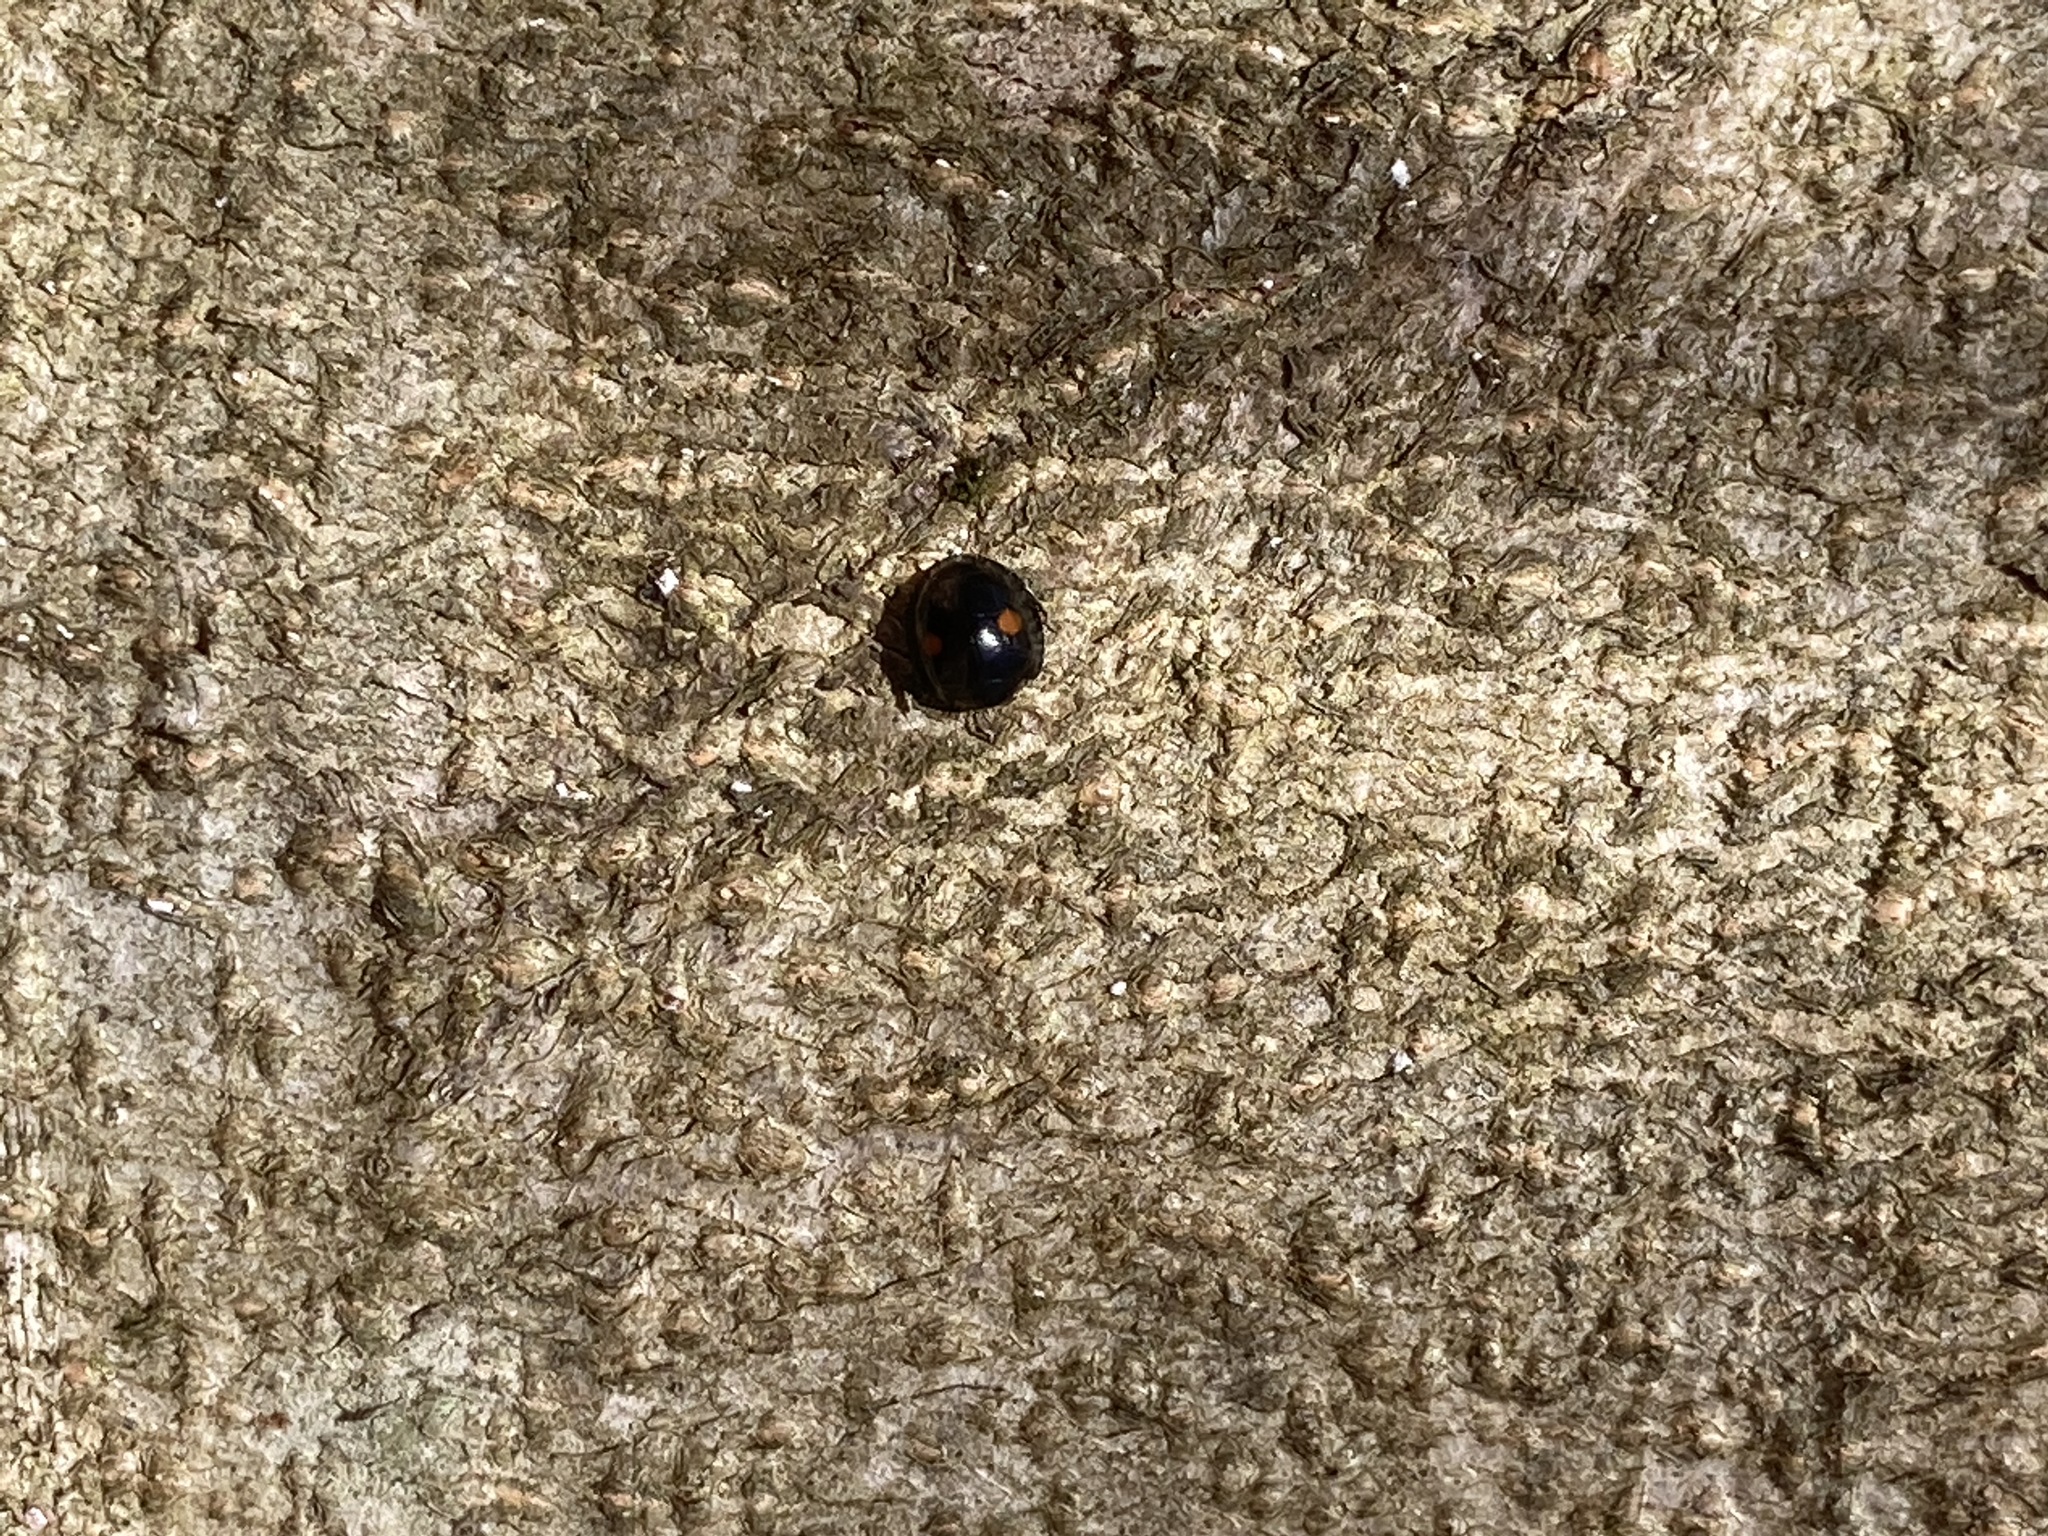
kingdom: Animalia
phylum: Arthropoda
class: Insecta
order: Coleoptera
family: Coccinellidae
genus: Chilocorus
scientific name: Chilocorus stigma
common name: Twicestabbed lady beetle
